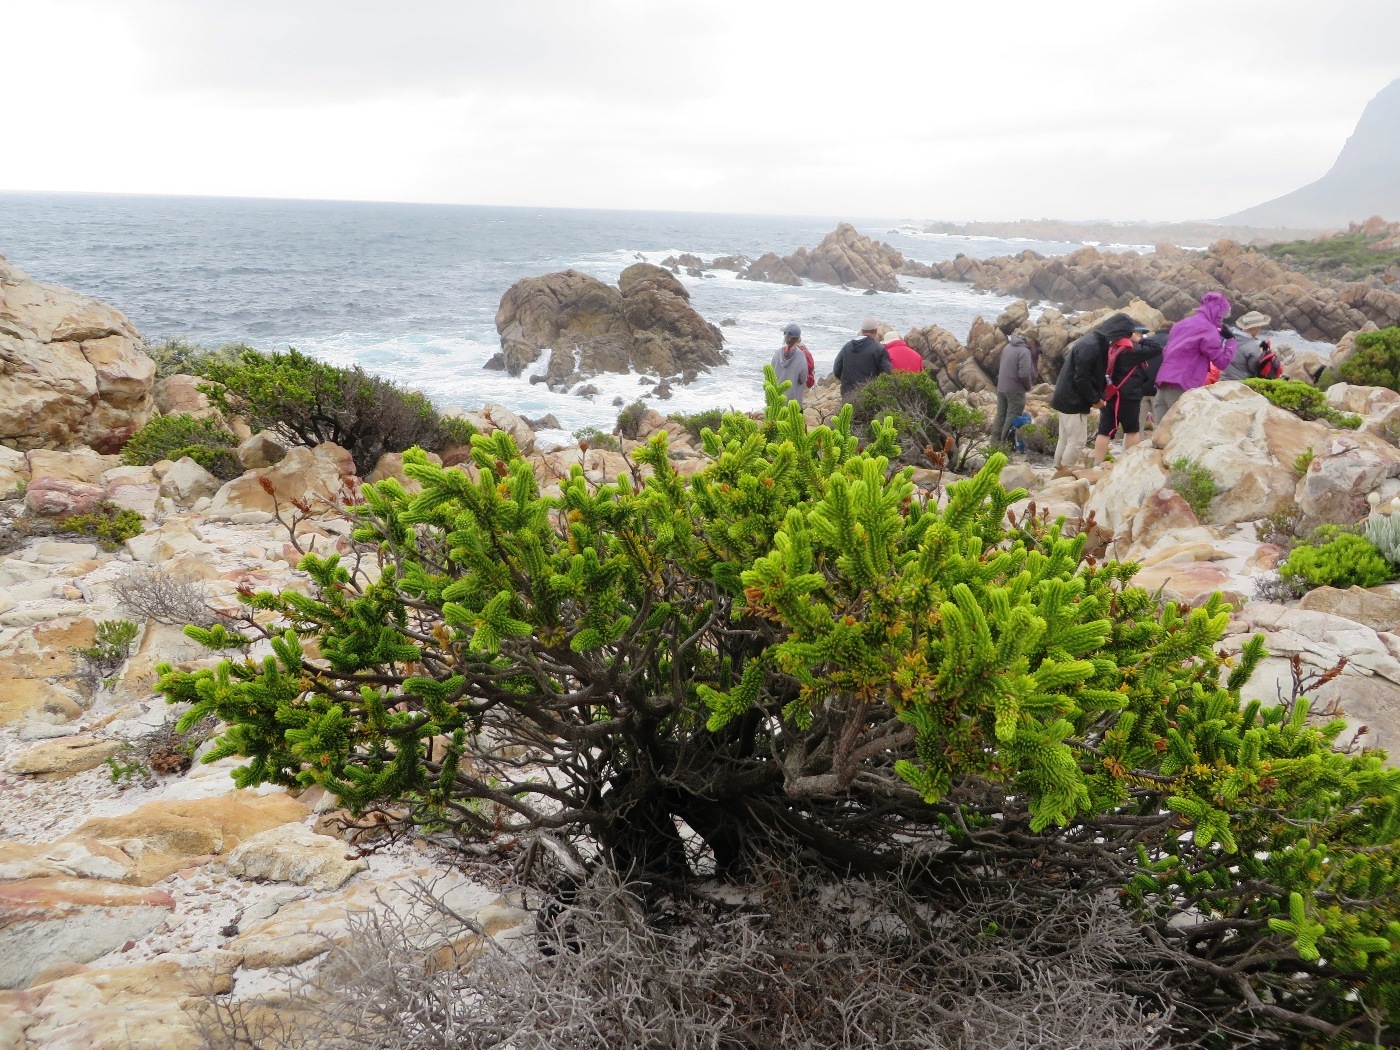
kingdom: Plantae
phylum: Tracheophyta
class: Magnoliopsida
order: Ericales
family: Ericaceae
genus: Erica
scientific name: Erica brachialis
